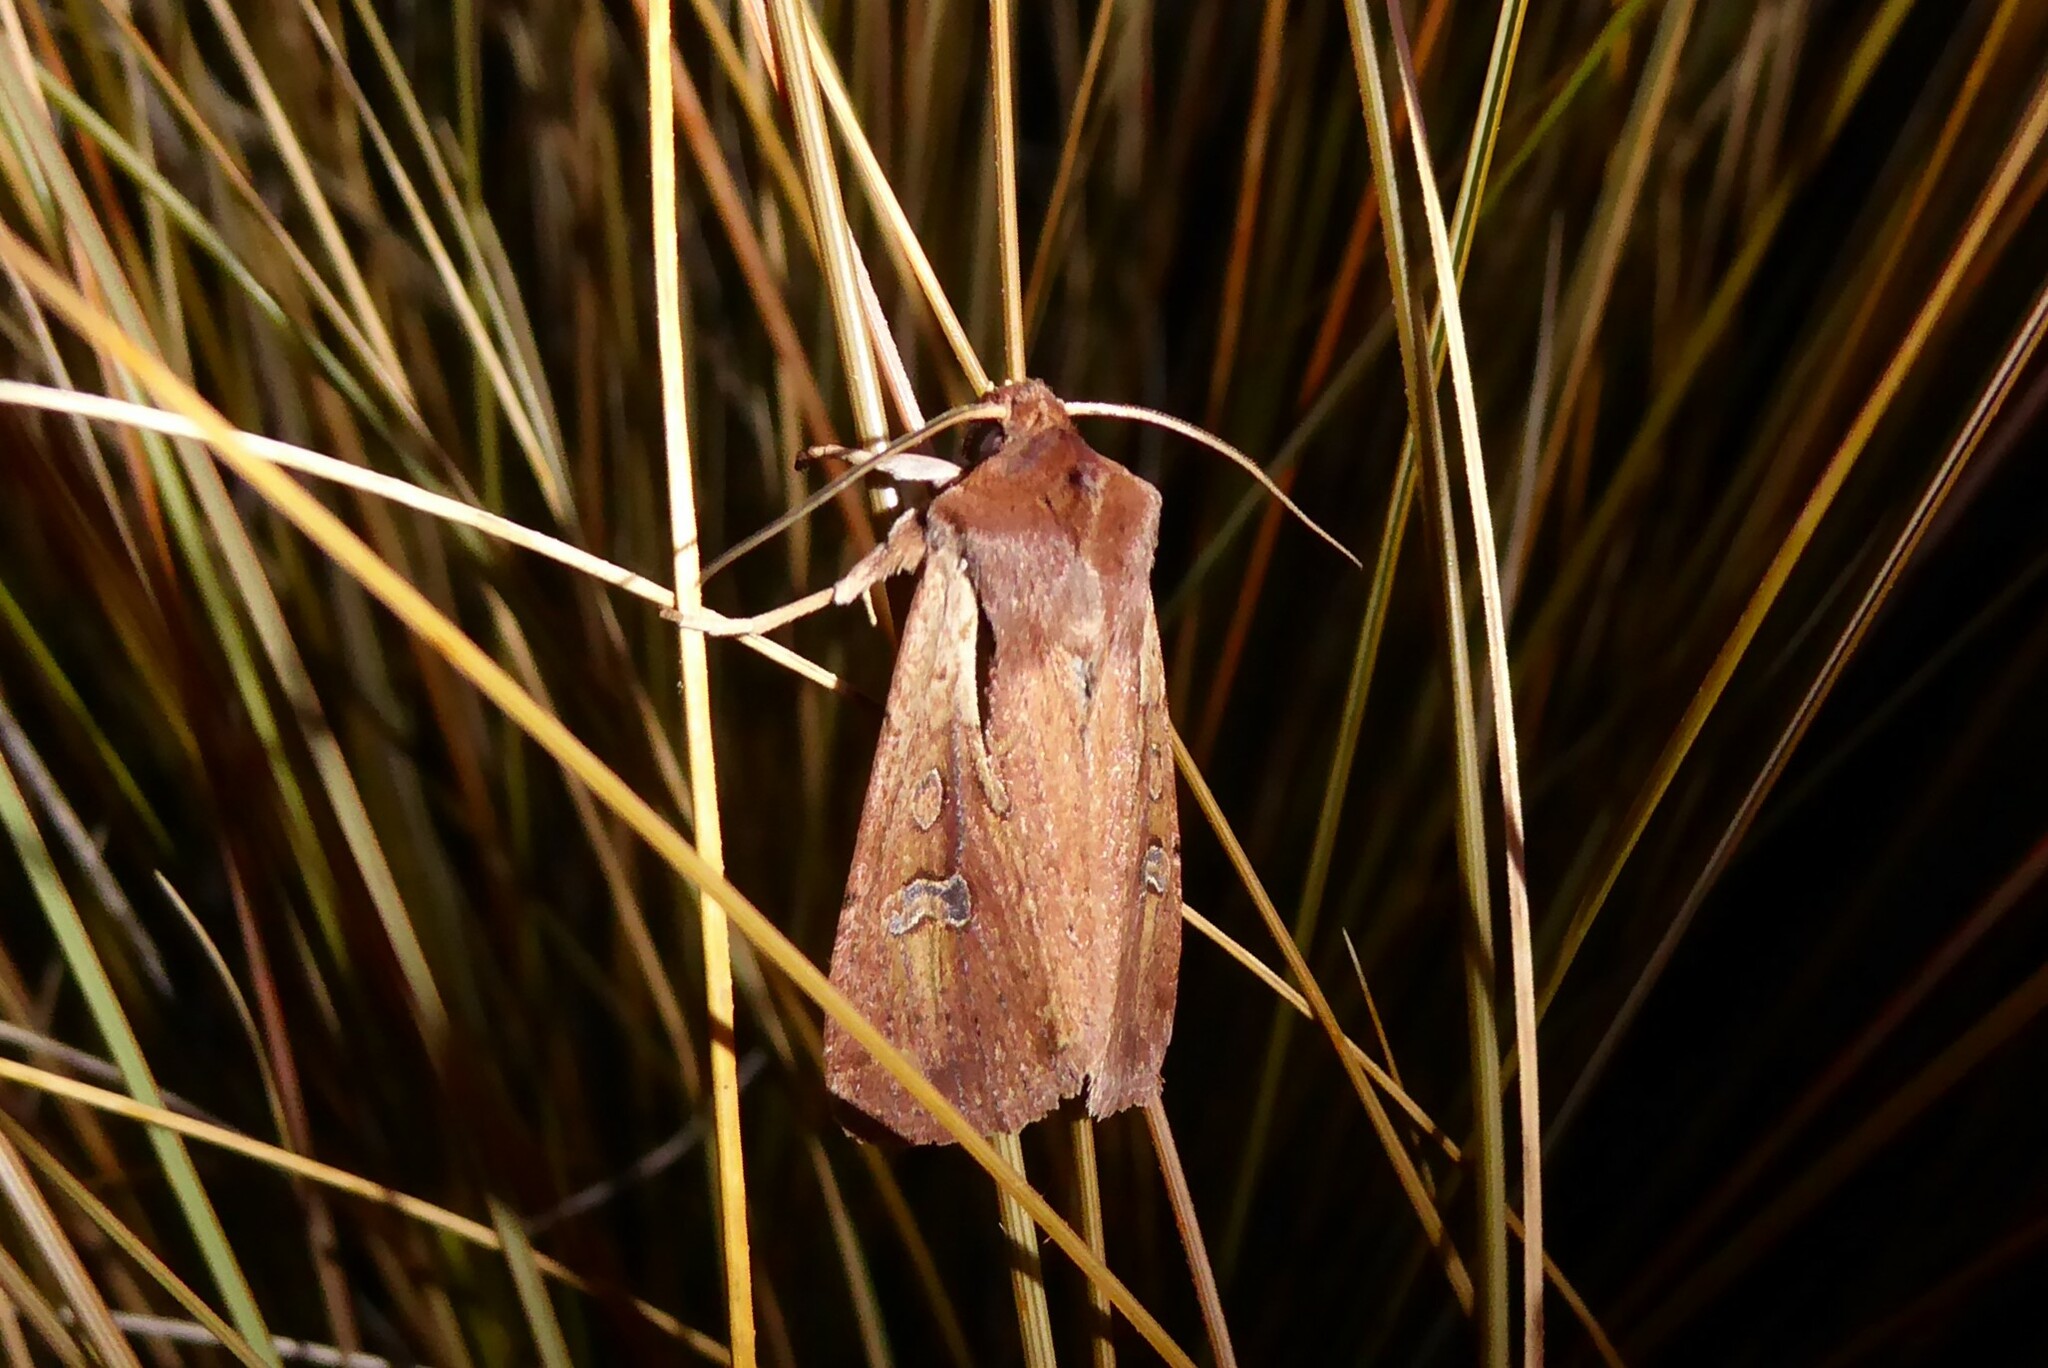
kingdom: Animalia
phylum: Arthropoda
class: Insecta
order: Lepidoptera
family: Noctuidae
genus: Ichneutica
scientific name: Ichneutica atristriga
